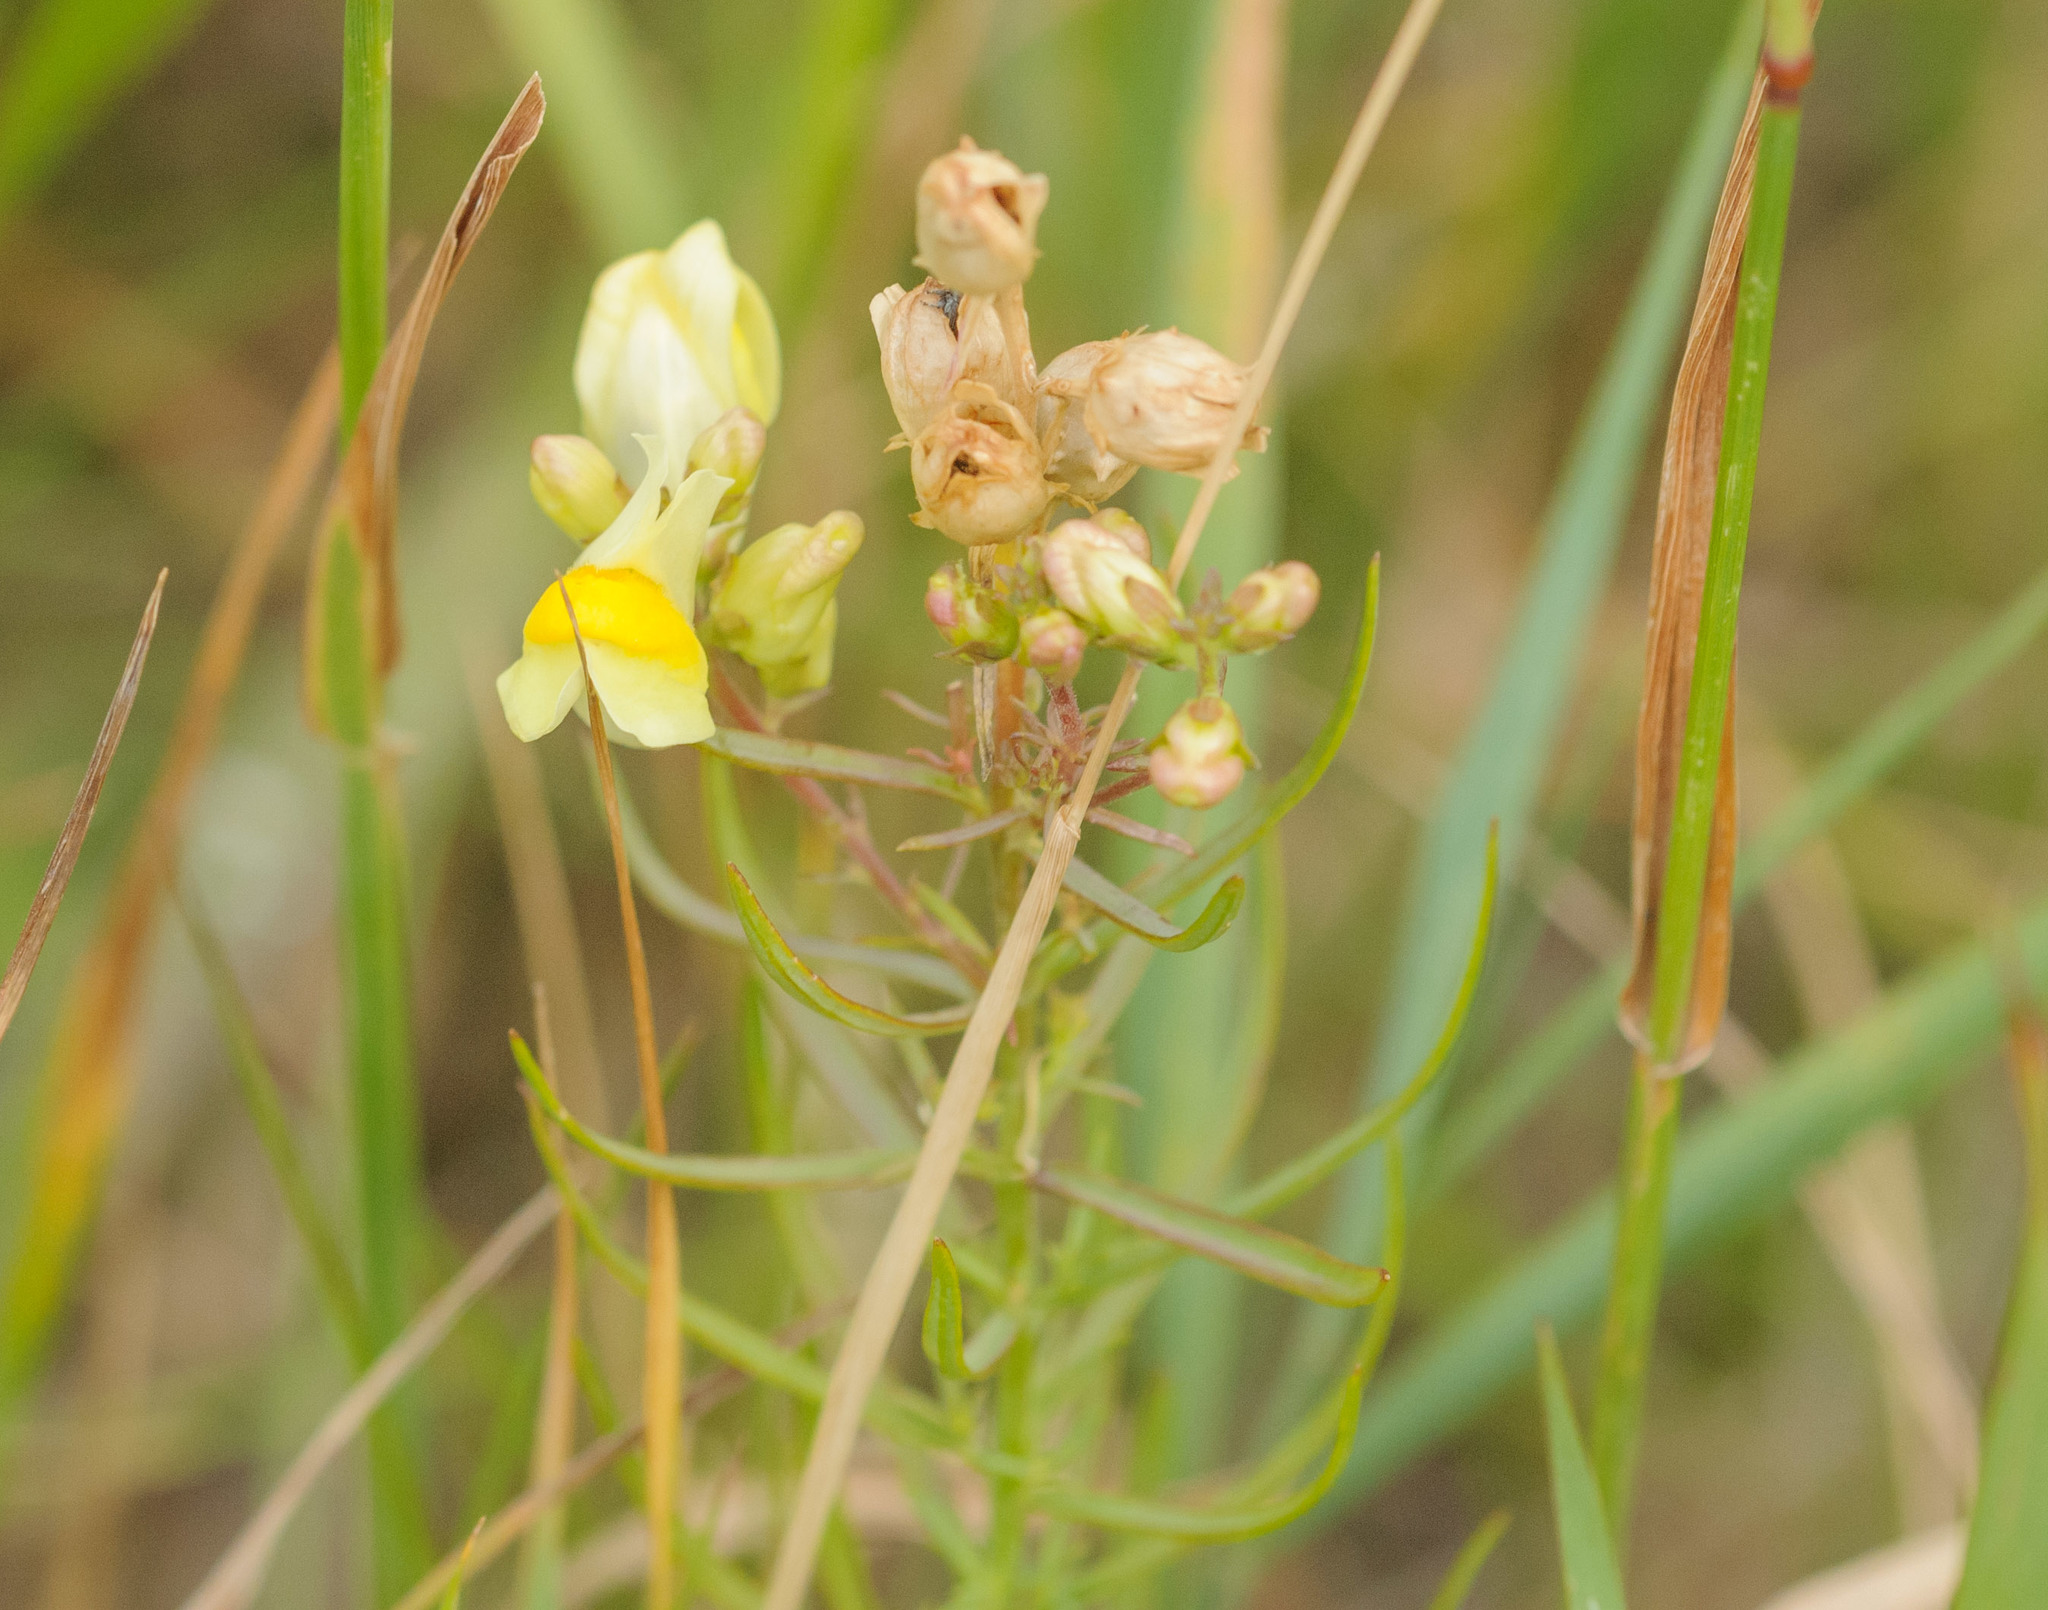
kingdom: Plantae
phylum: Tracheophyta
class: Magnoliopsida
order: Lamiales
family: Plantaginaceae
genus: Linaria
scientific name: Linaria vulgaris
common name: Butter and eggs
